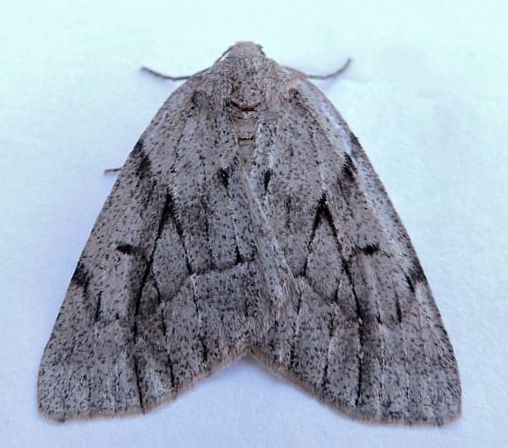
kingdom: Animalia
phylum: Arthropoda
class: Insecta
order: Lepidoptera
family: Geometridae
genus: Nepytia
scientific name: Nepytia swetti
